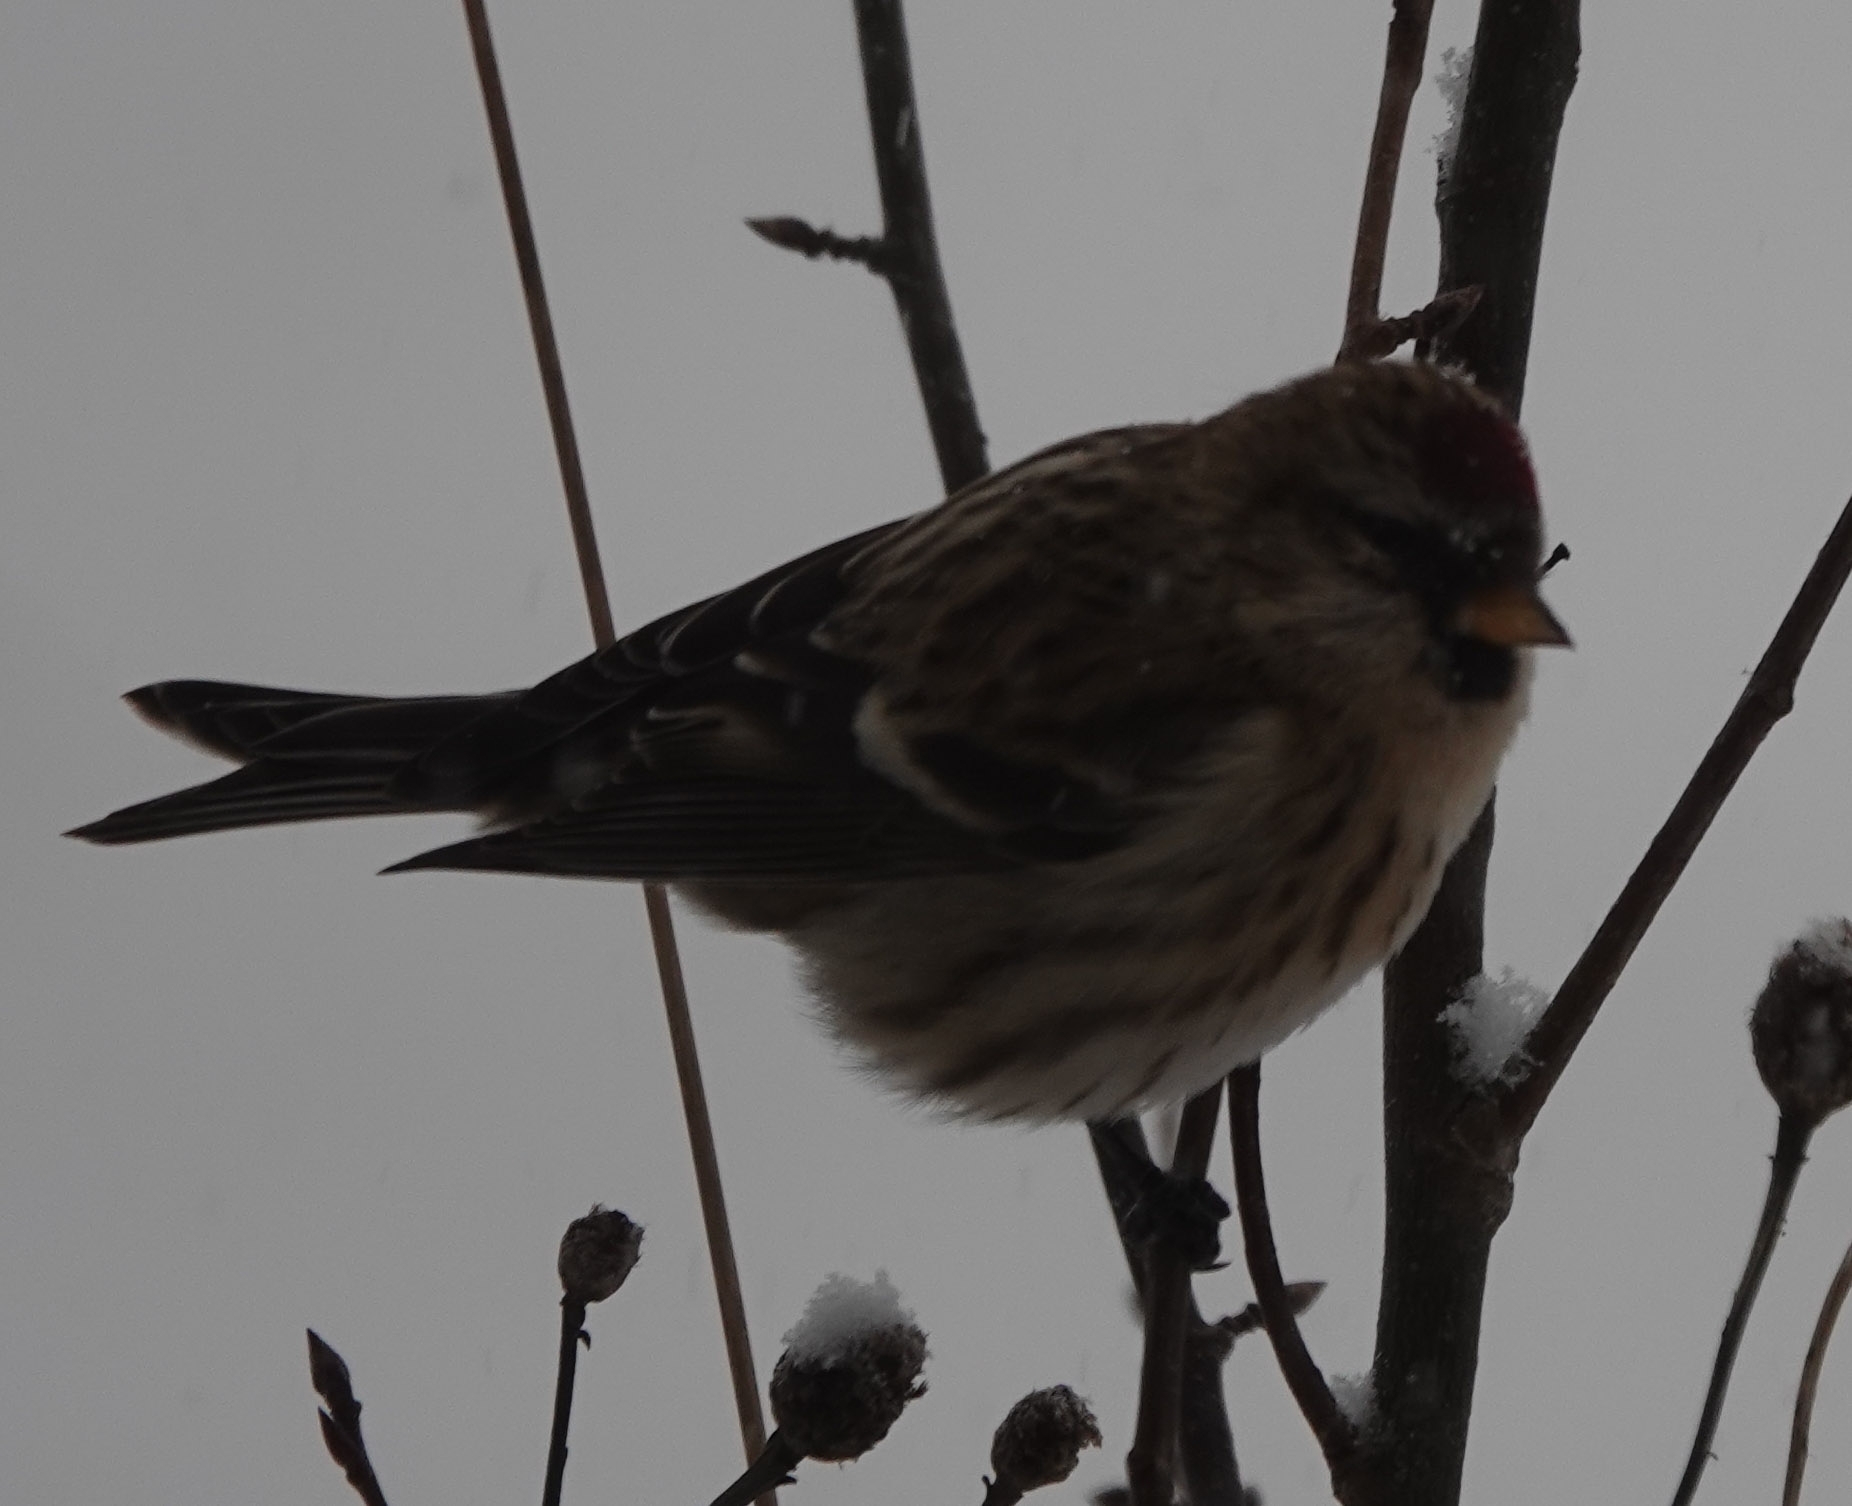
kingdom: Animalia
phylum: Chordata
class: Aves
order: Passeriformes
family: Fringillidae
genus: Acanthis
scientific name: Acanthis flammea
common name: Common redpoll
